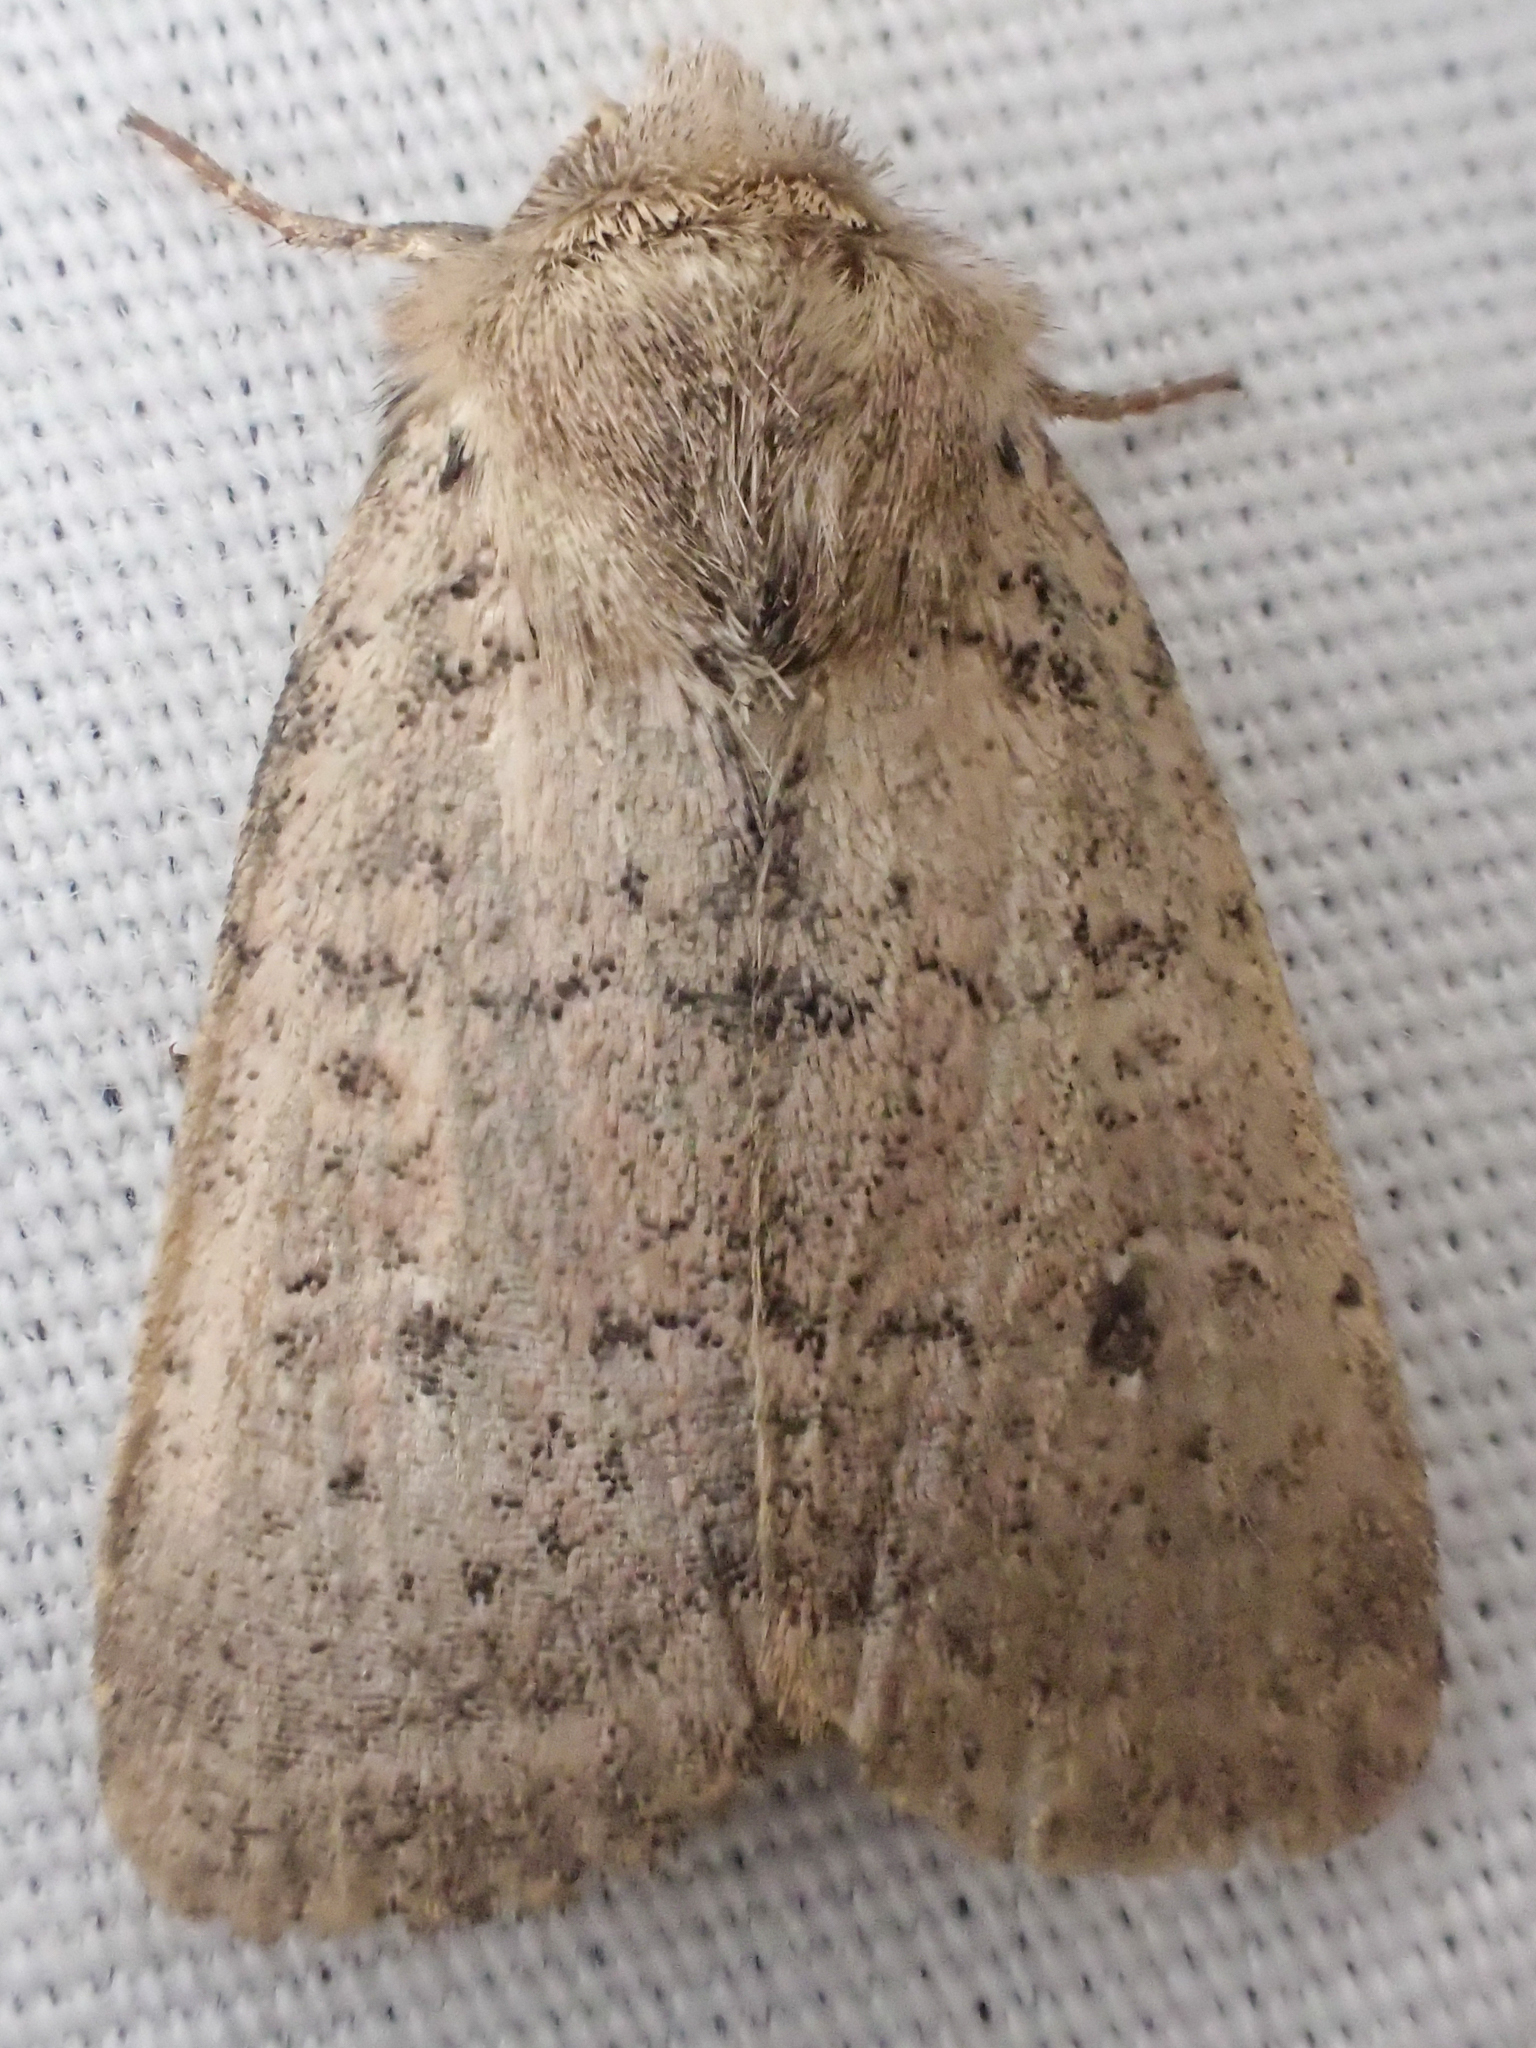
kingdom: Animalia
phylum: Arthropoda
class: Insecta
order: Lepidoptera
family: Noctuidae
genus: Homorthodes
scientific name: Homorthodes communis
